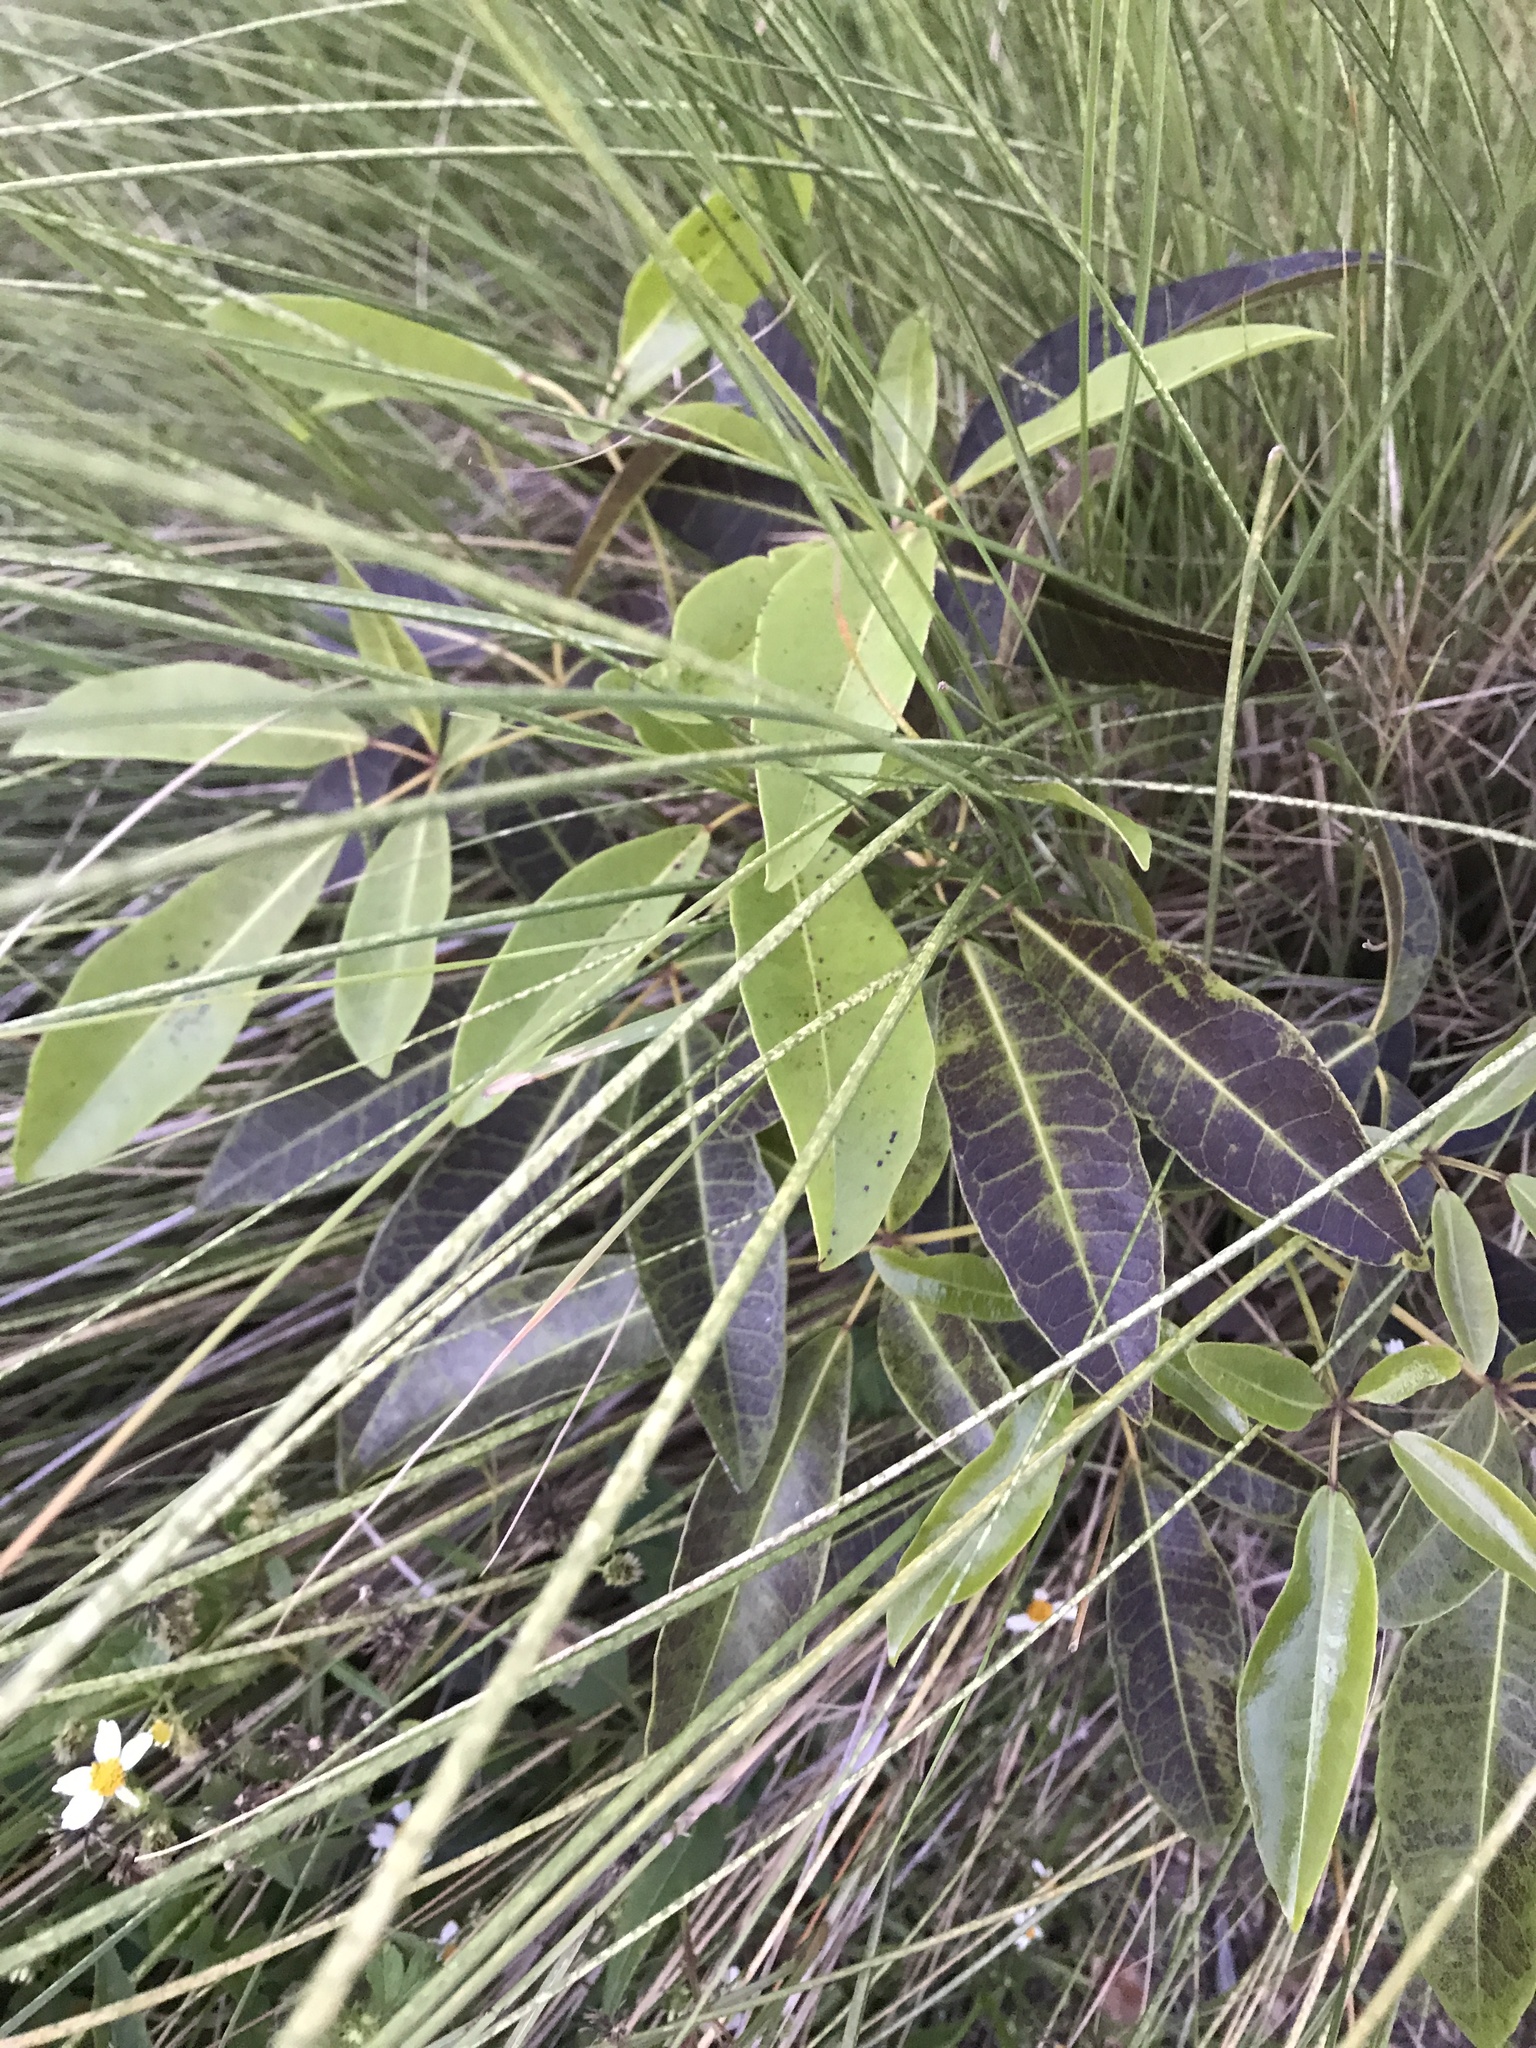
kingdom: Plantae
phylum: Tracheophyta
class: Magnoliopsida
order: Lamiales
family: Bignoniaceae
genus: Tabebuia
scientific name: Tabebuia heterophylla
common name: White cedar
